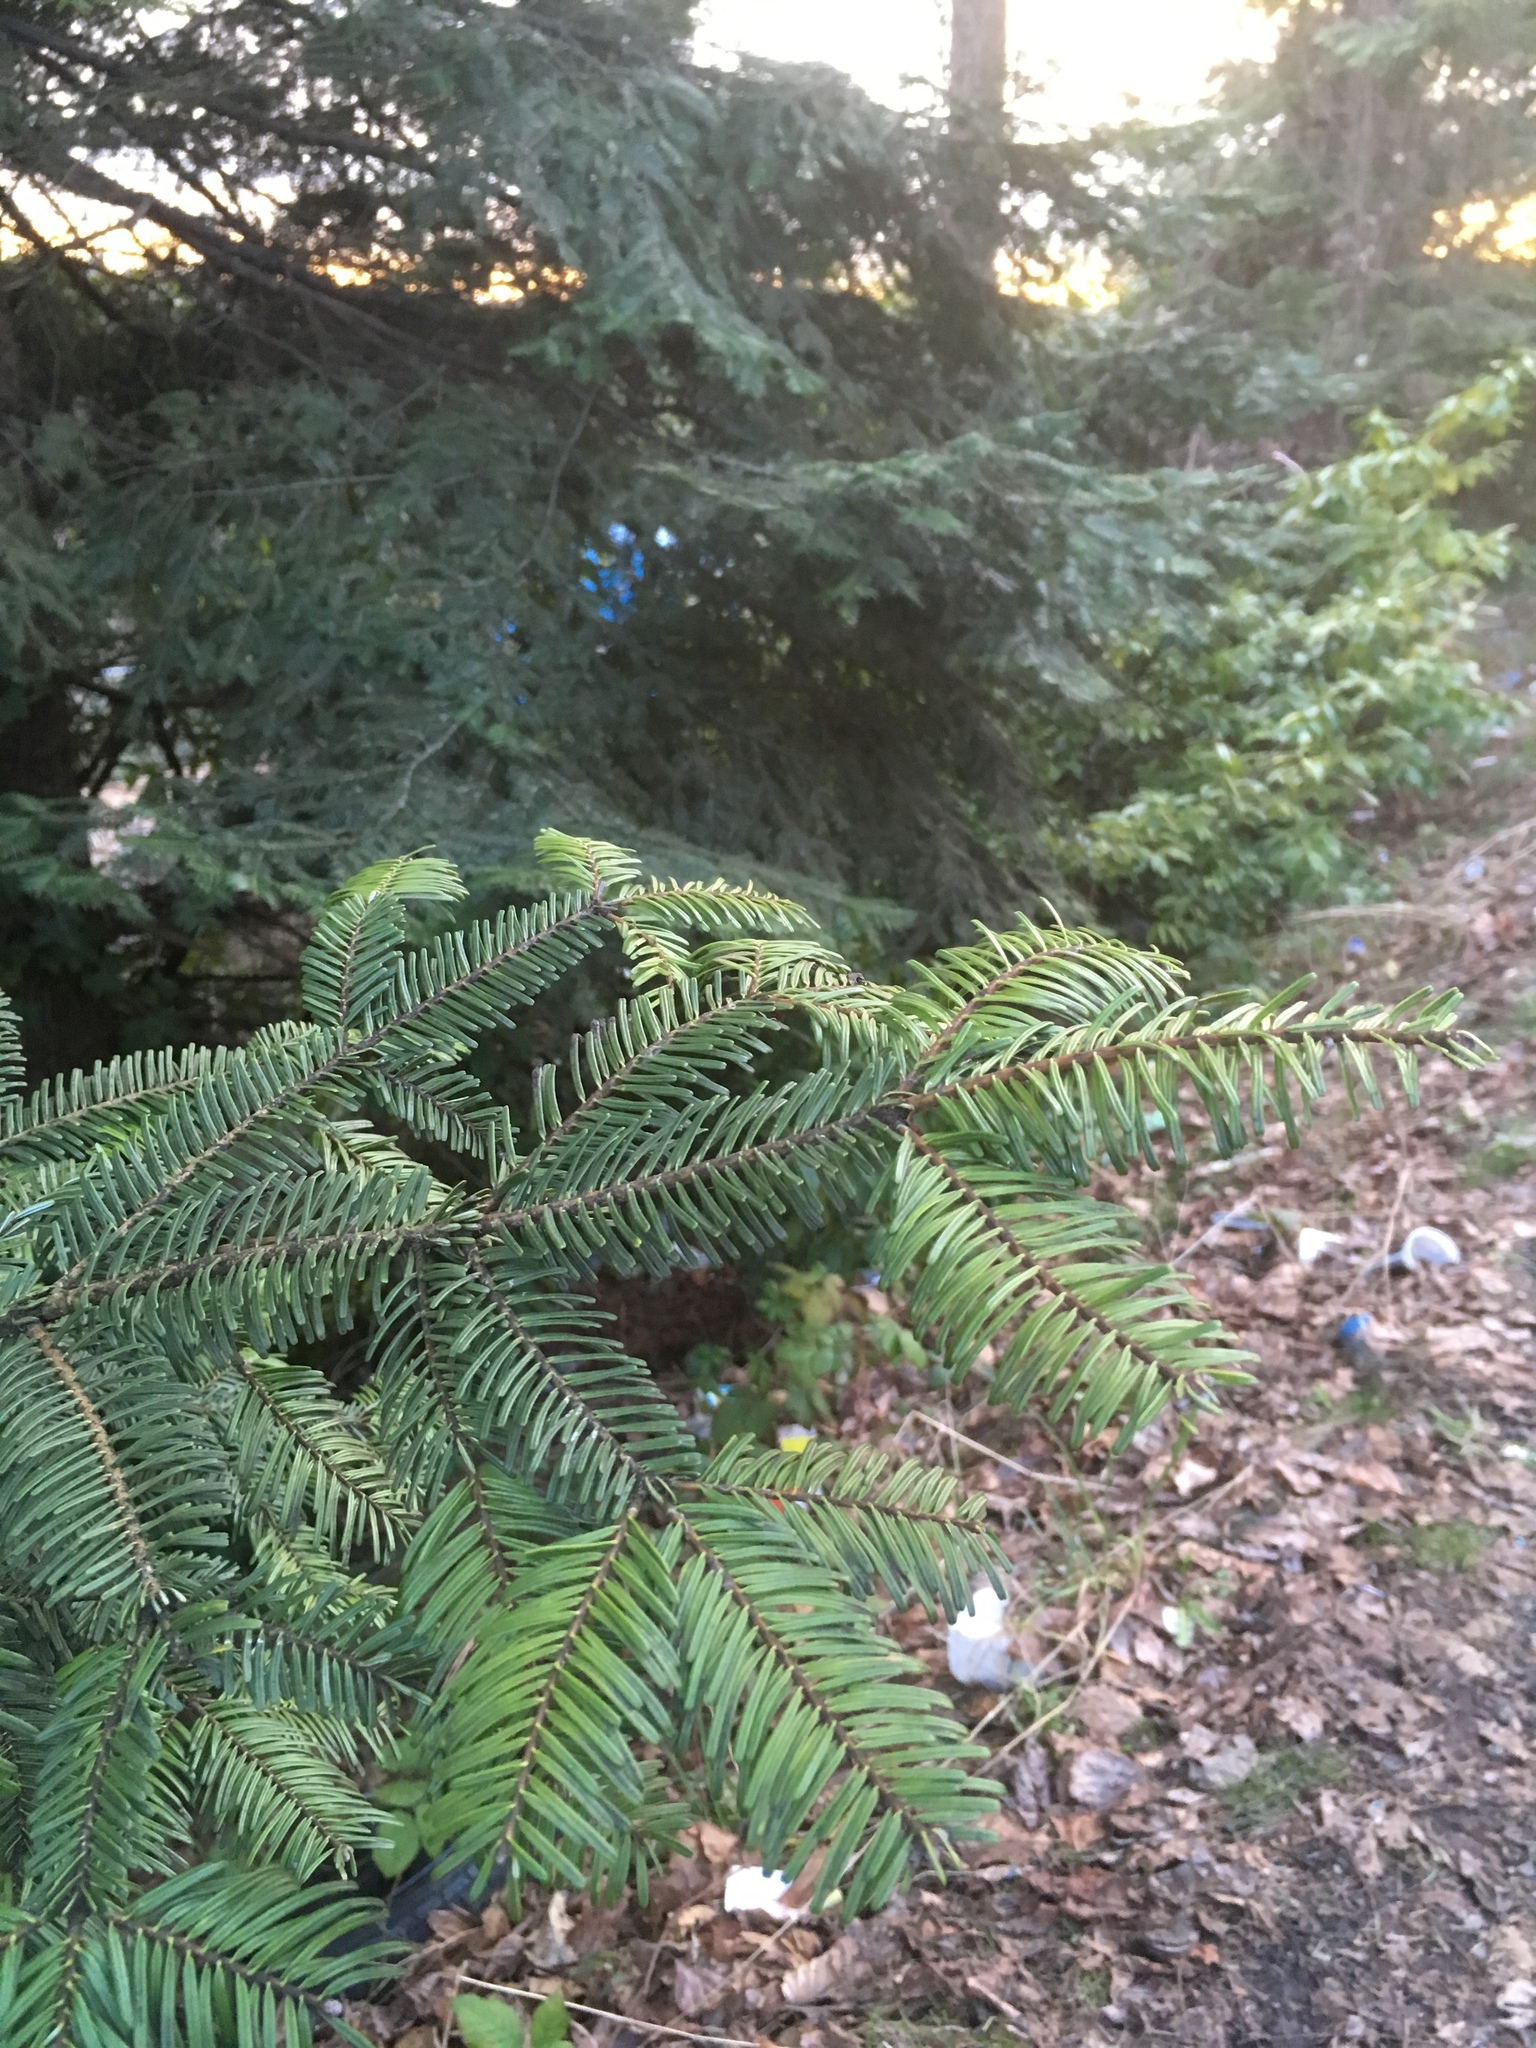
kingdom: Plantae
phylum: Tracheophyta
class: Pinopsida
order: Pinales
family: Pinaceae
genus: Abies
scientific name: Abies grandis
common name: Giant fir
